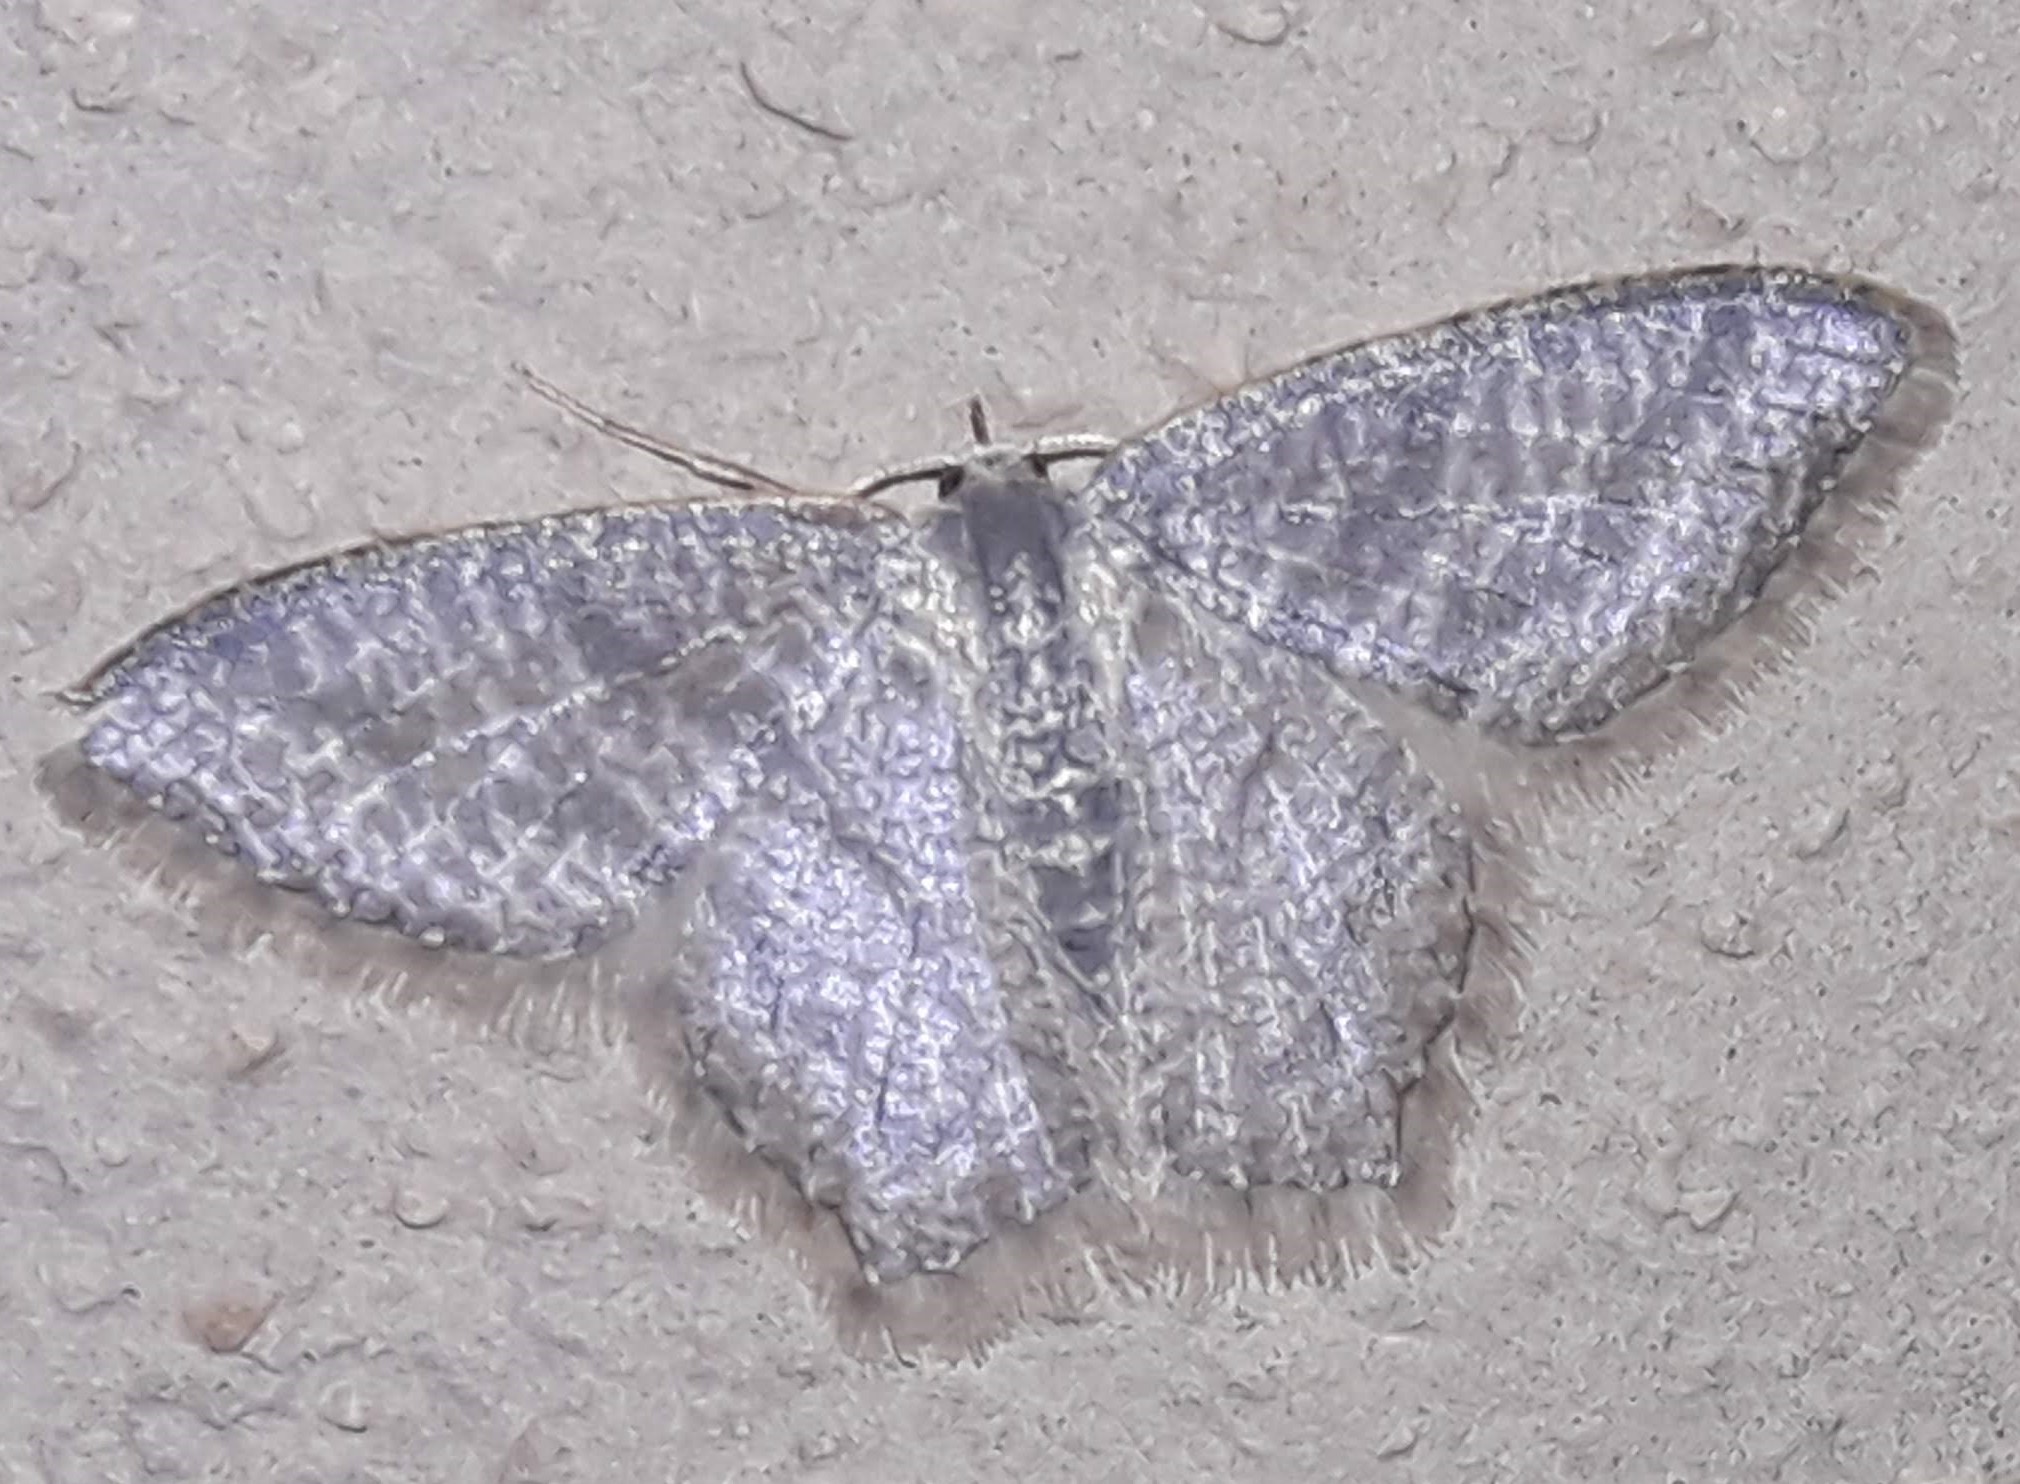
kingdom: Animalia
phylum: Arthropoda
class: Insecta
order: Lepidoptera
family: Geometridae
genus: Chloropteryx
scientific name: Chloropteryx opalaria
